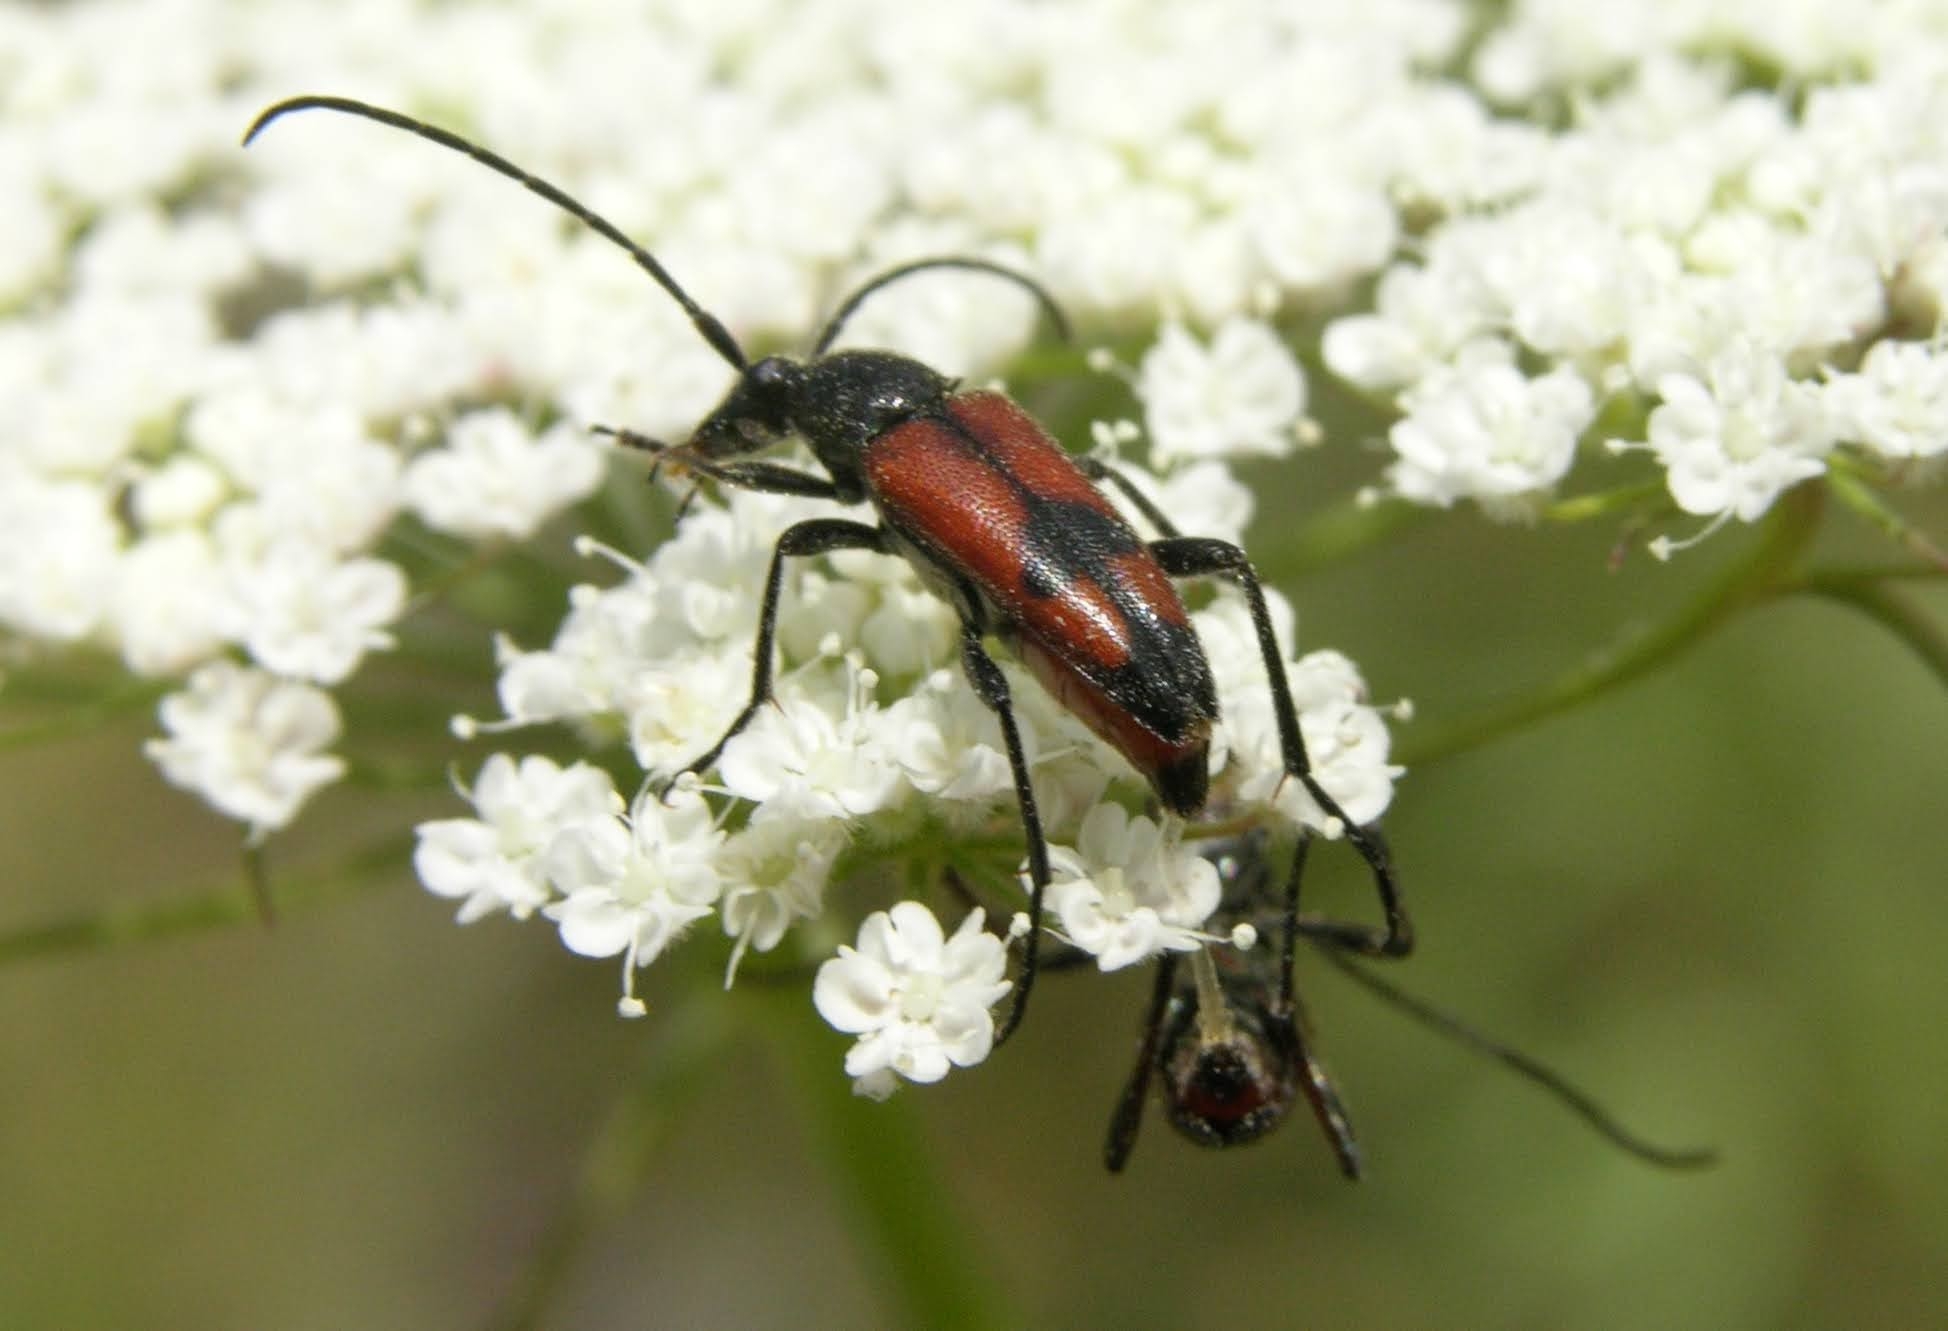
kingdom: Animalia
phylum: Arthropoda
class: Insecta
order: Coleoptera
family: Cerambycidae
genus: Stenurella
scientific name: Stenurella bifasciata
